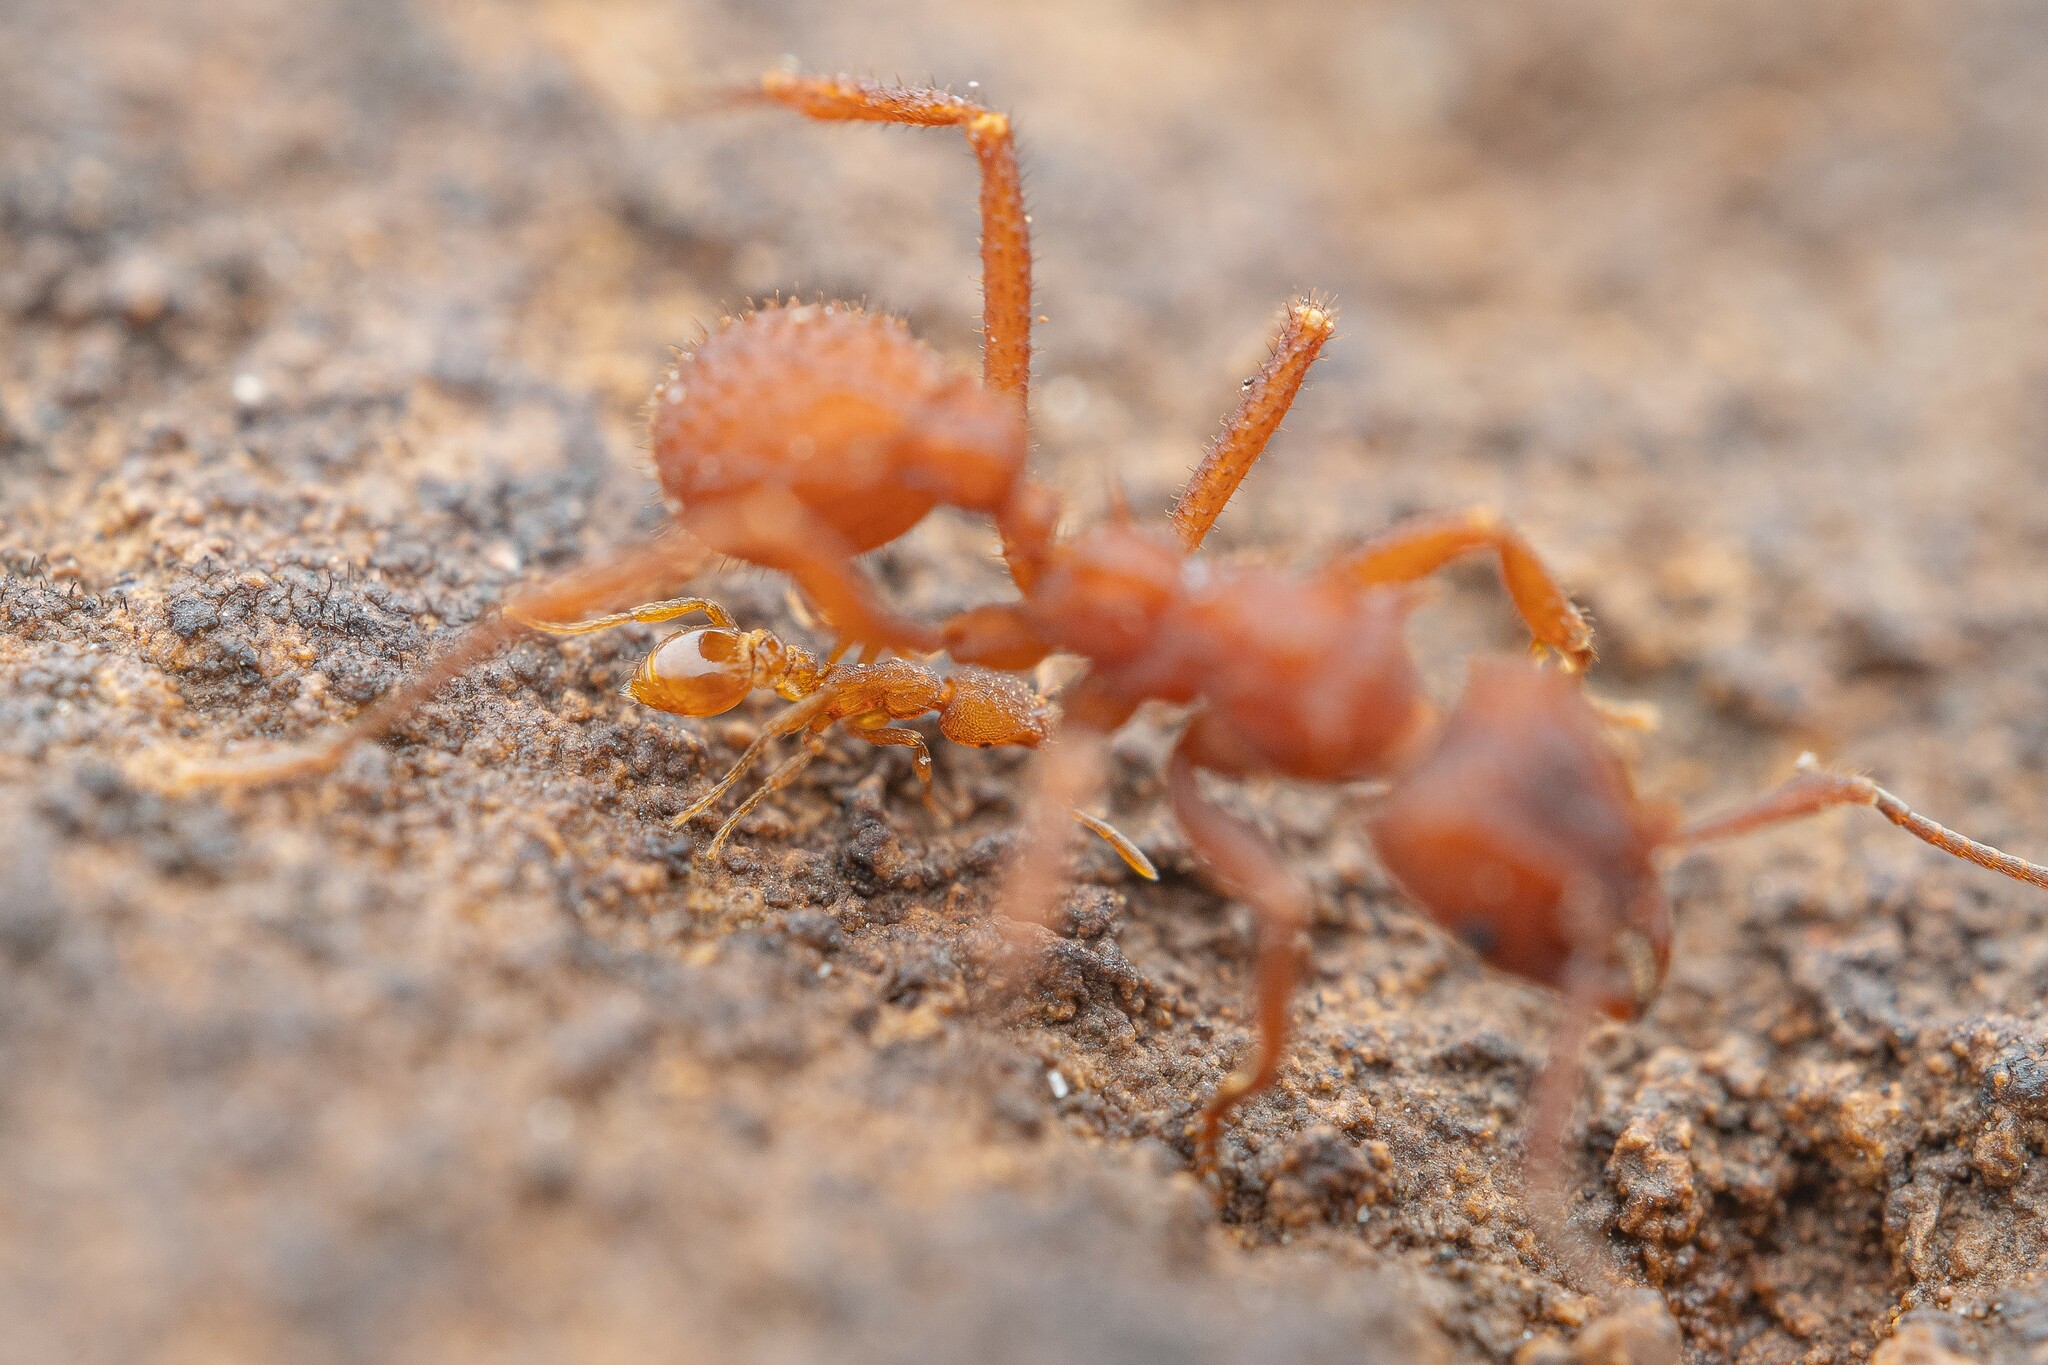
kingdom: Animalia
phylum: Arthropoda
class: Insecta
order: Hymenoptera
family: Formicidae
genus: Pyramica
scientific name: Pyramica arizonica
